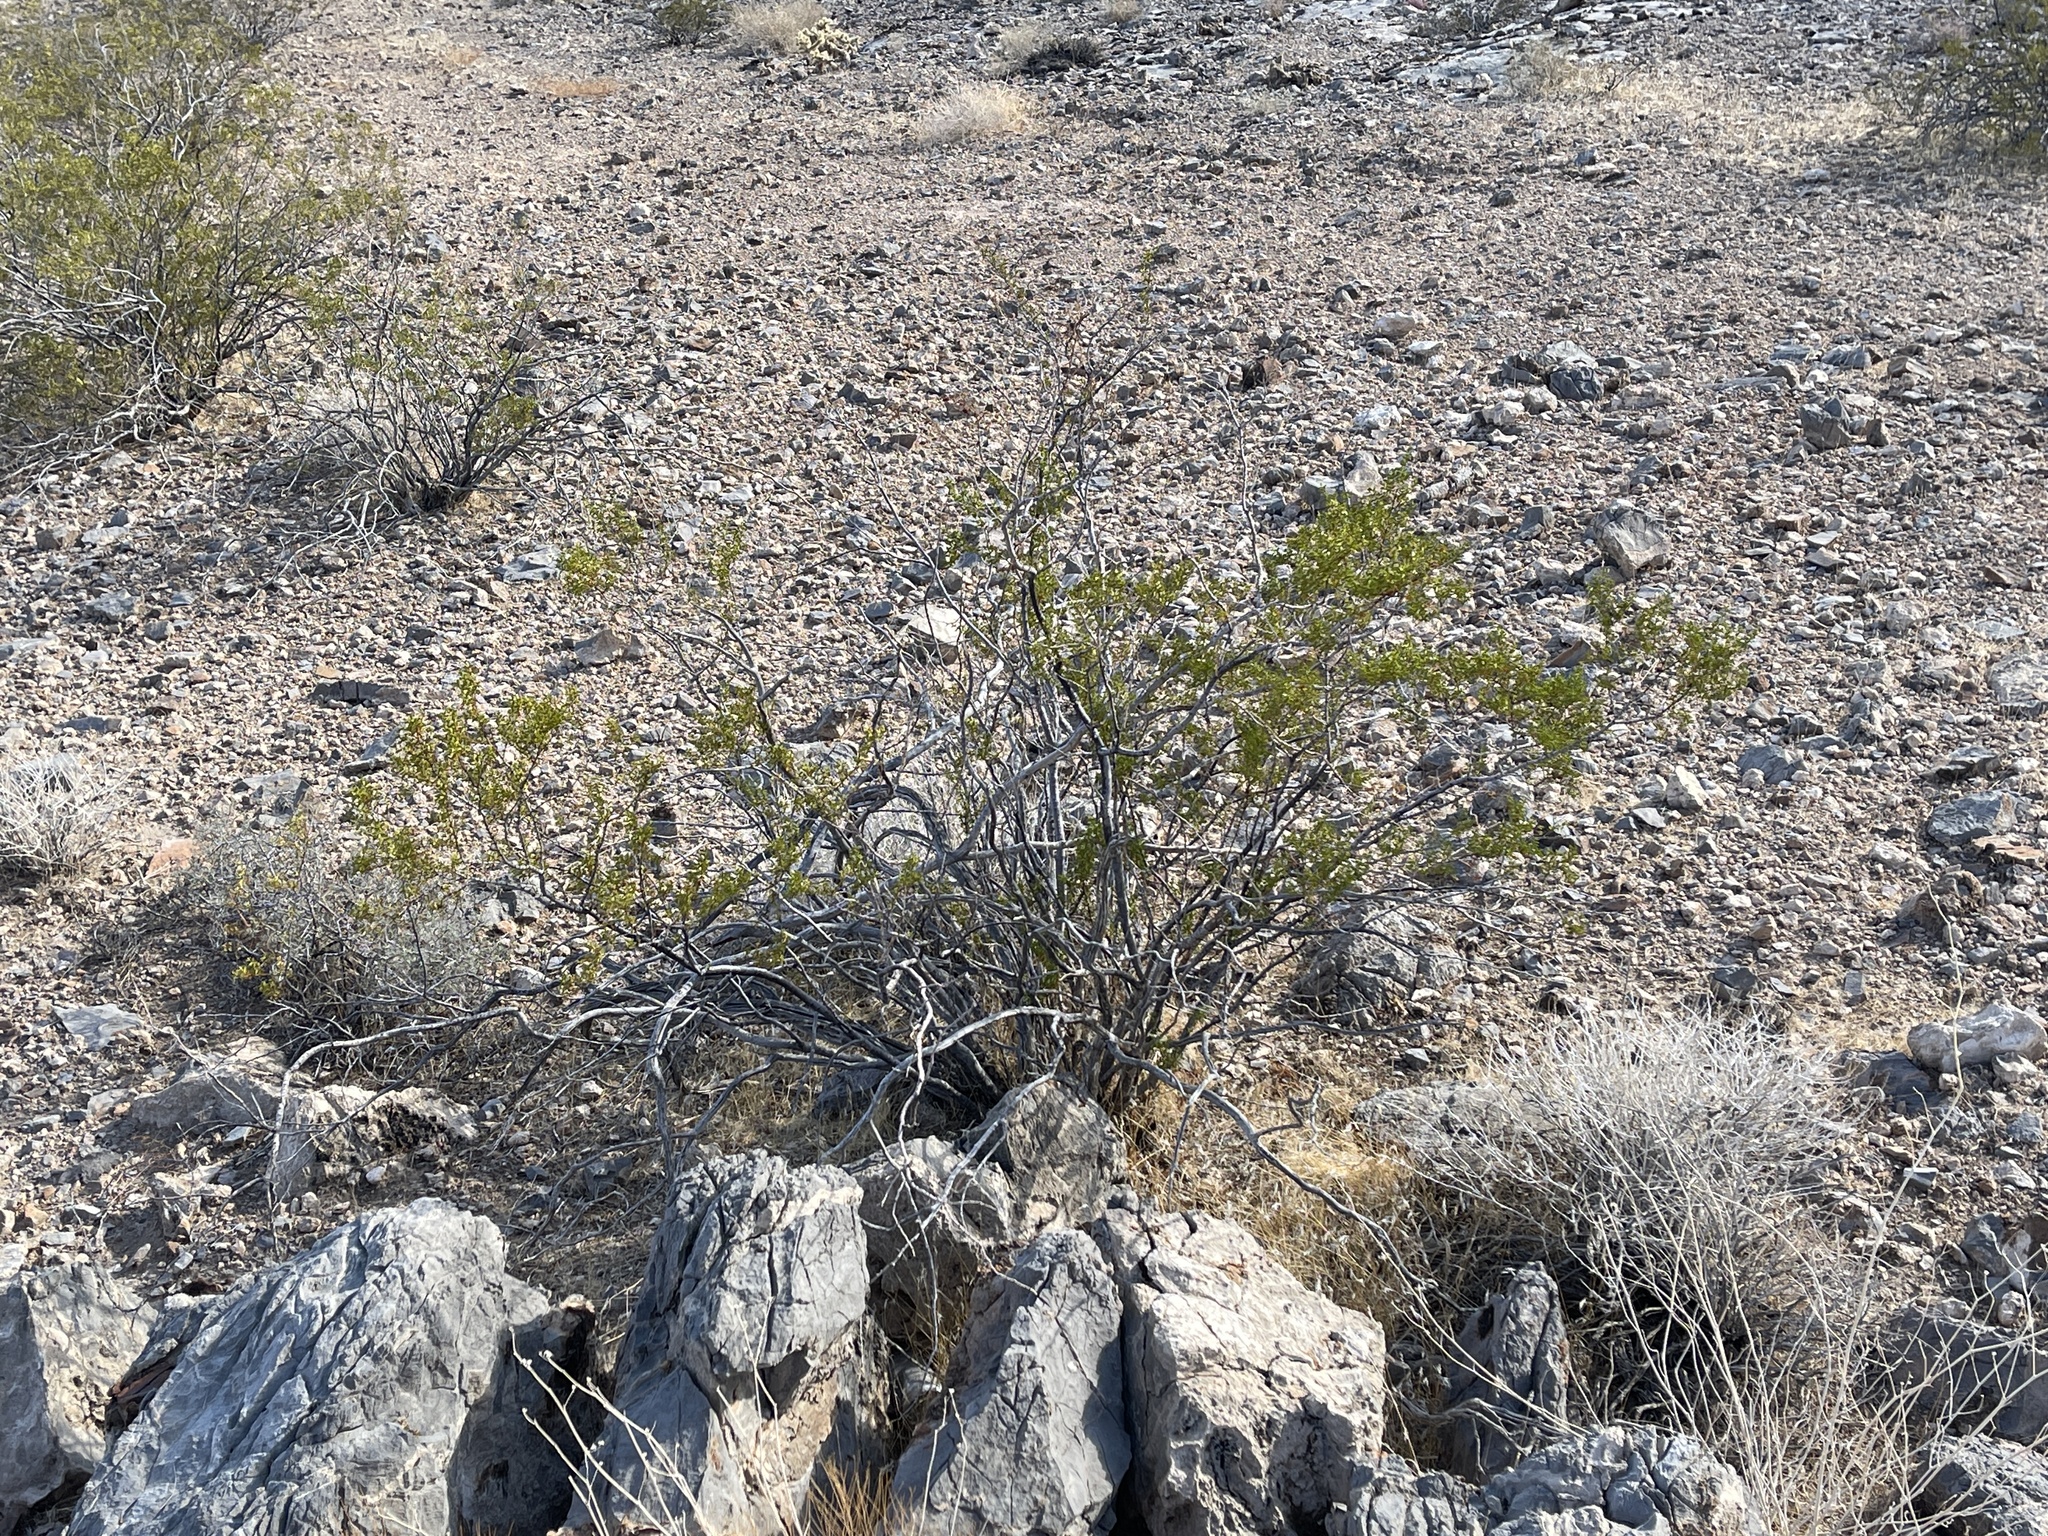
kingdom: Plantae
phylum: Tracheophyta
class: Magnoliopsida
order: Zygophyllales
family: Zygophyllaceae
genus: Larrea
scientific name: Larrea tridentata
